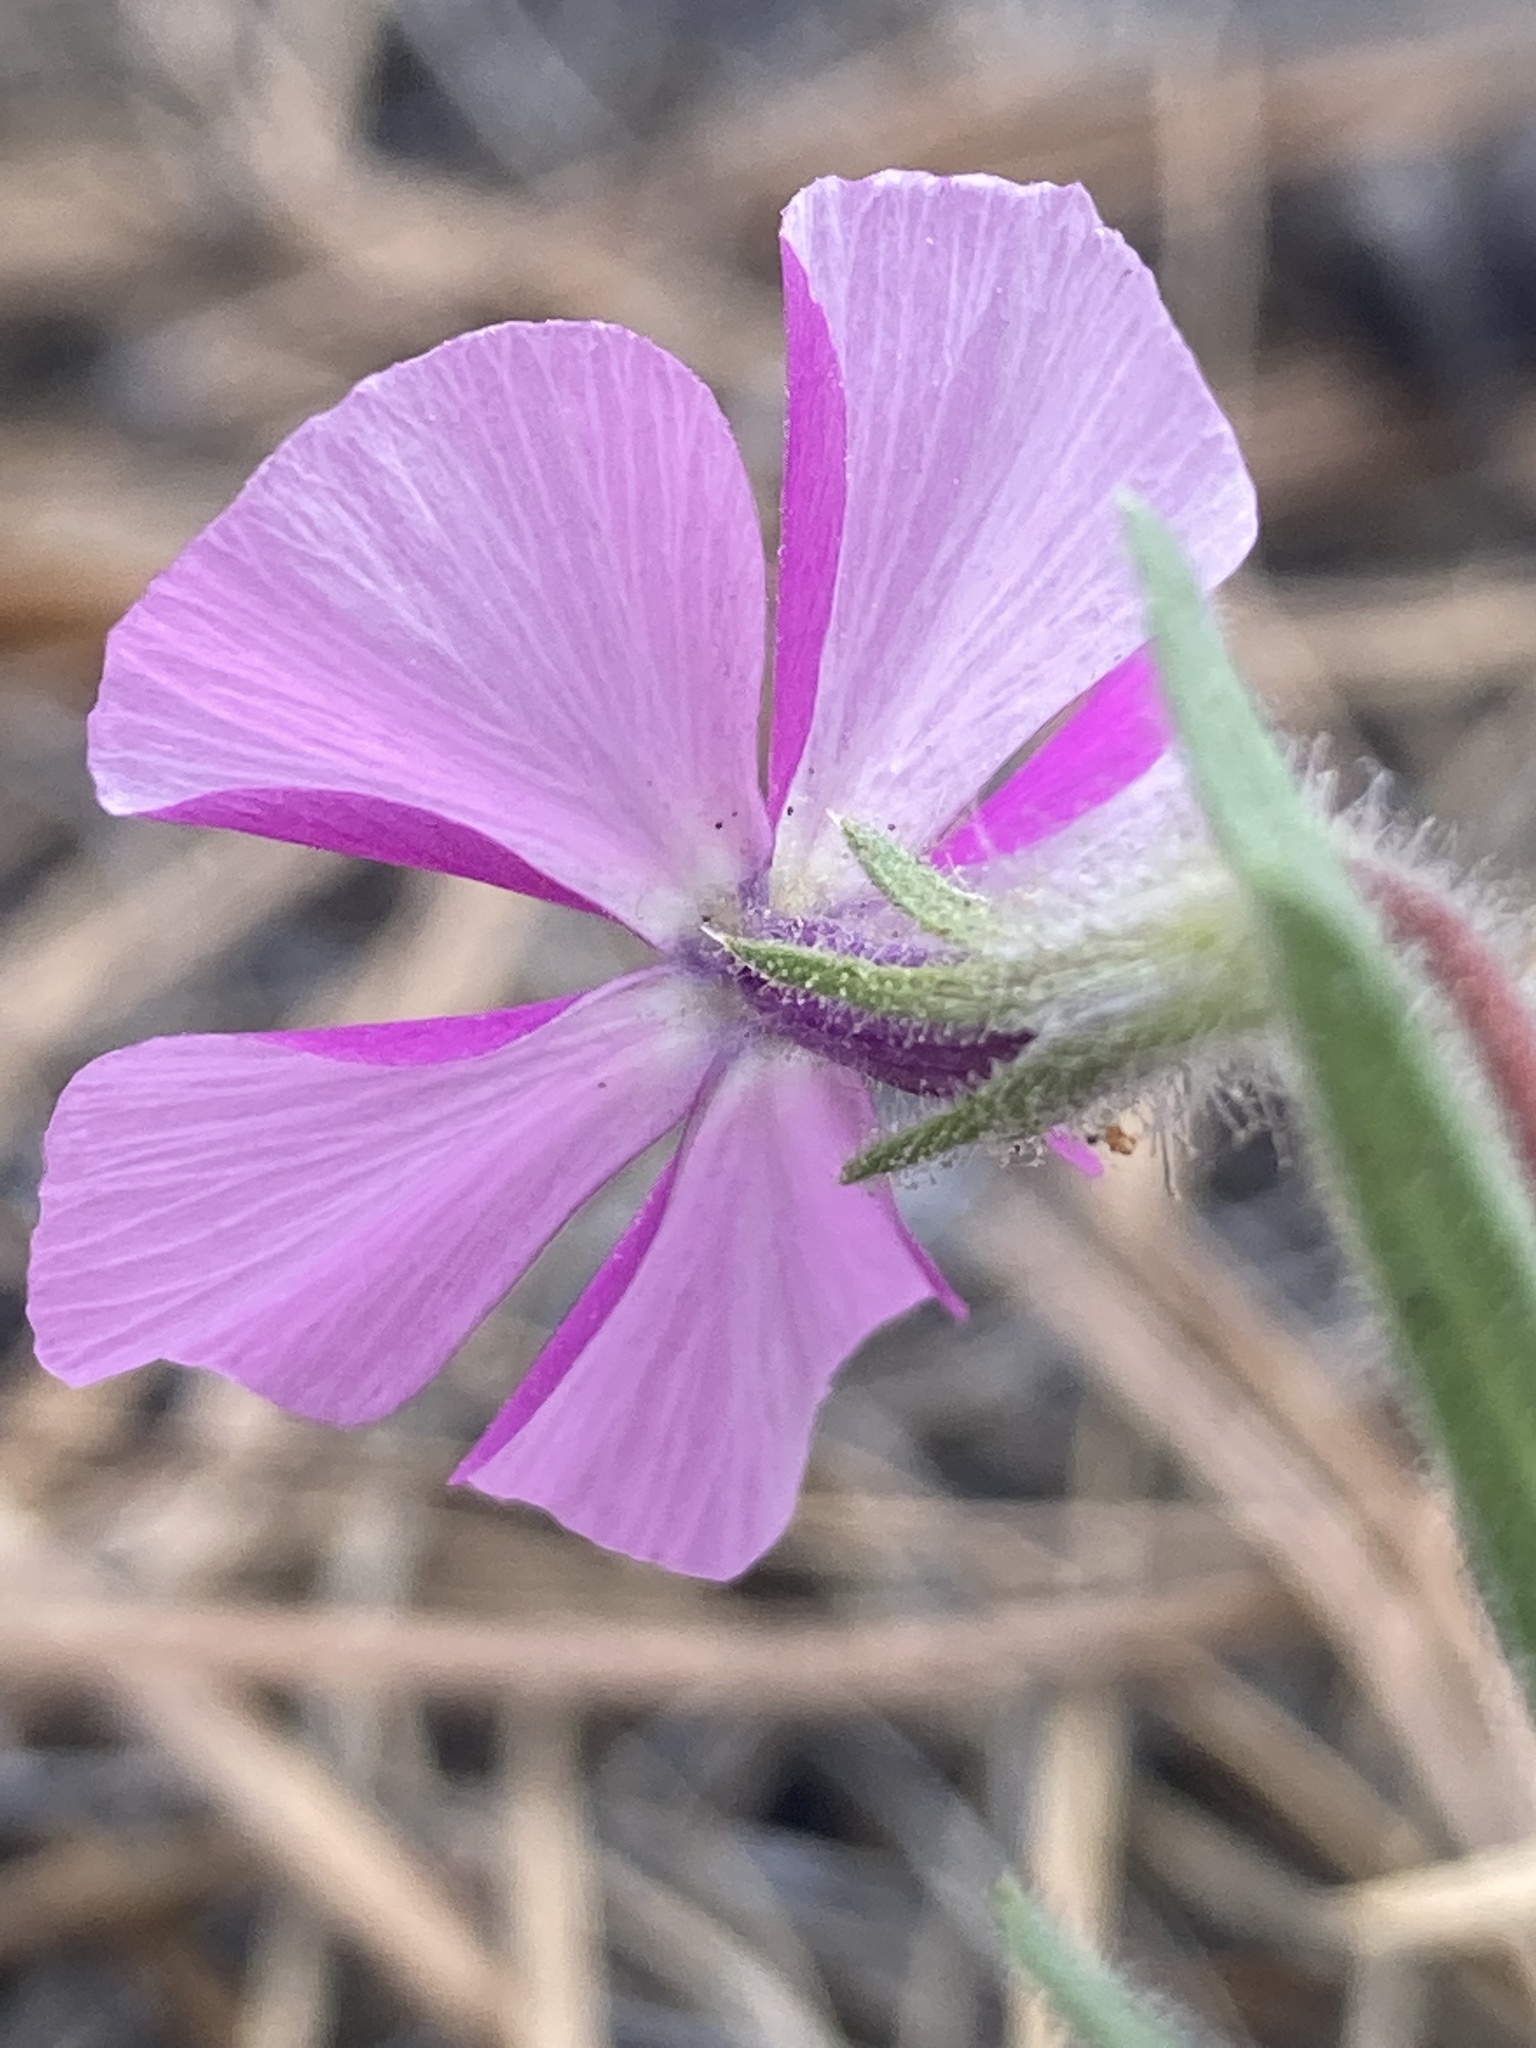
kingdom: Plantae
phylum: Tracheophyta
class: Magnoliopsida
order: Ericales
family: Polemoniaceae
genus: Phlox
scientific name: Phlox nana
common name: Santa fe phlox
